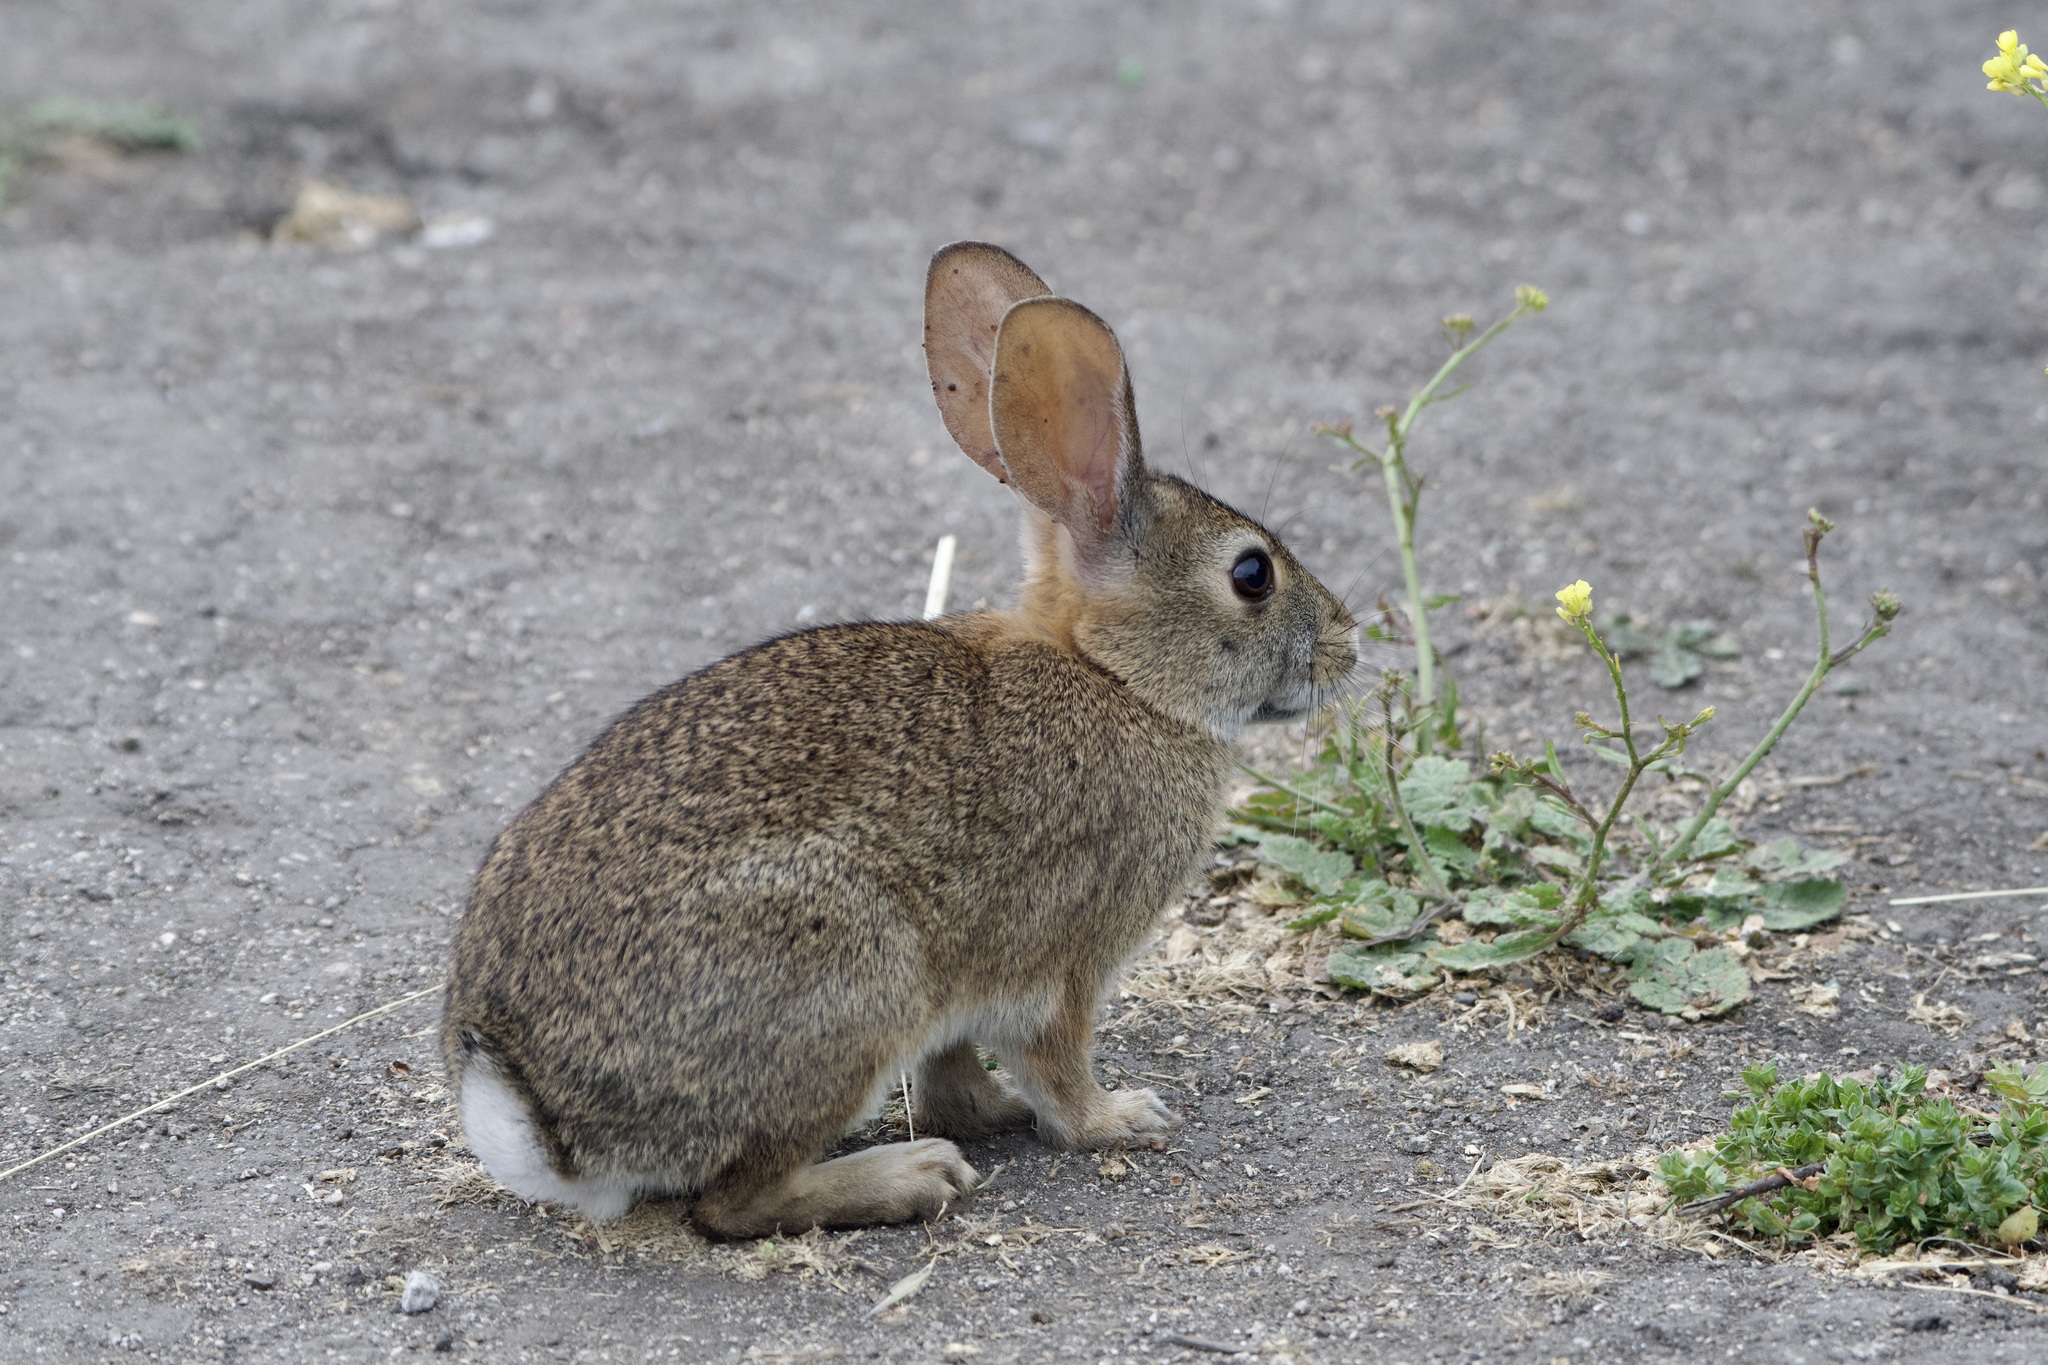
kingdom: Animalia
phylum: Chordata
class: Mammalia
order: Lagomorpha
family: Leporidae
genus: Sylvilagus
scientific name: Sylvilagus bachmani
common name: Brush rabbit
